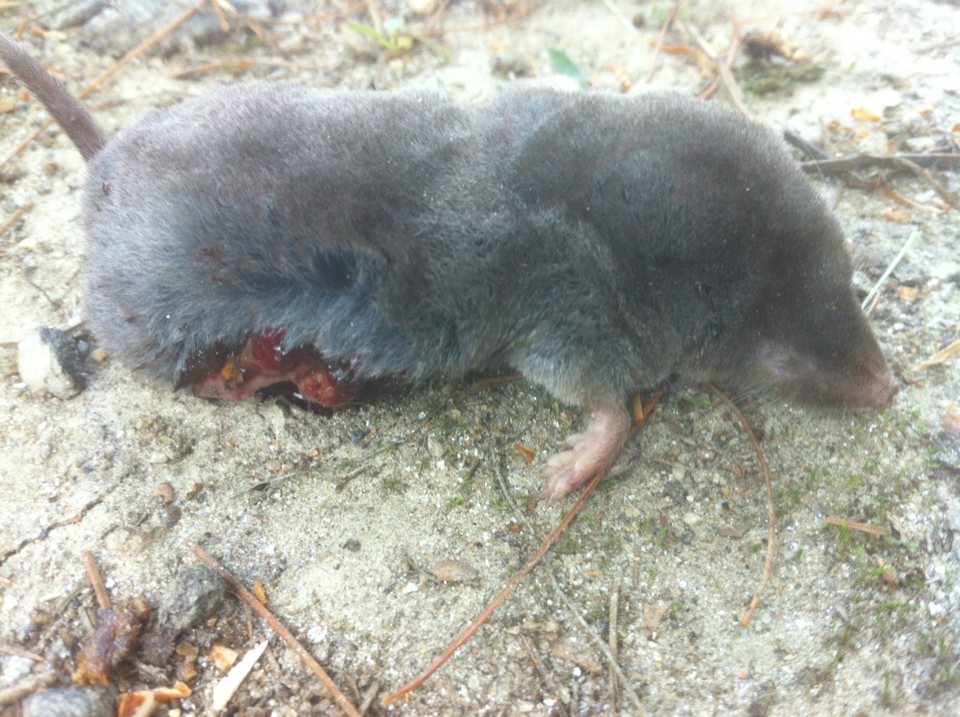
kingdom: Animalia
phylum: Chordata
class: Mammalia
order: Soricomorpha
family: Soricidae
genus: Blarina
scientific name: Blarina brevicauda
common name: Northern short-tailed shrew
